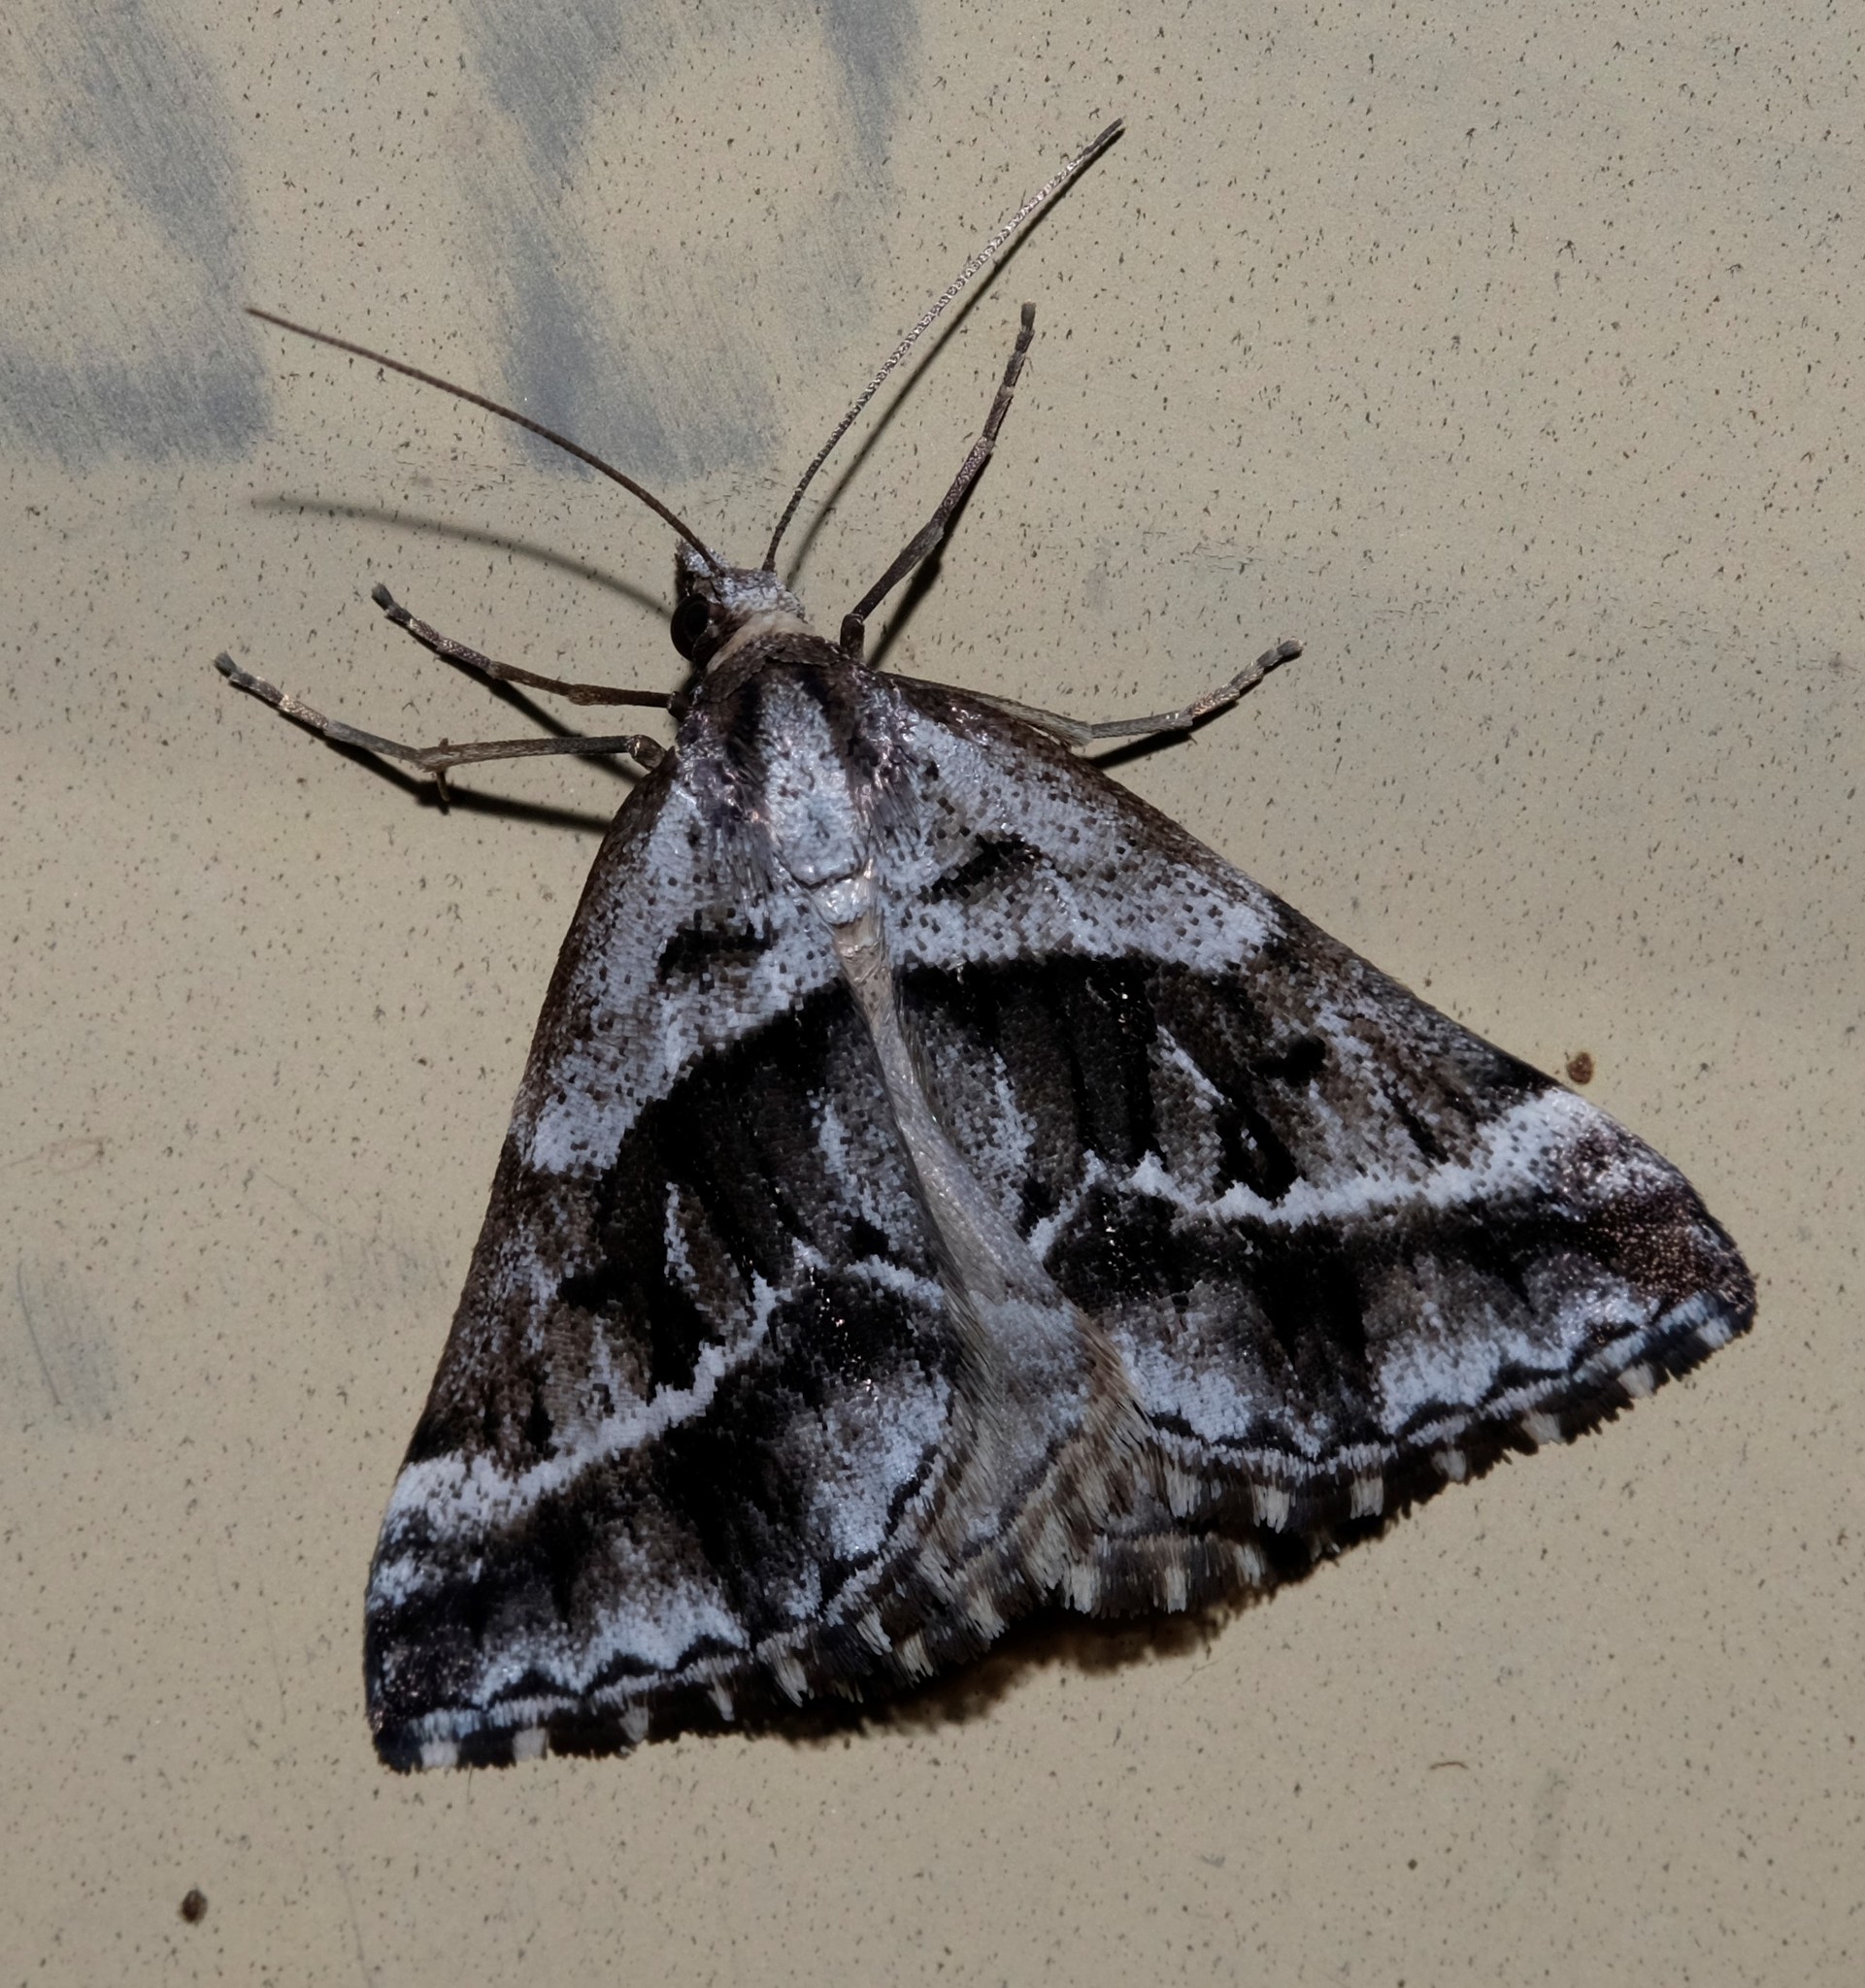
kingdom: Animalia
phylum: Arthropoda
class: Insecta
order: Lepidoptera
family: Geometridae
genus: Dichromodes
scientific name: Dichromodes stilbiata
